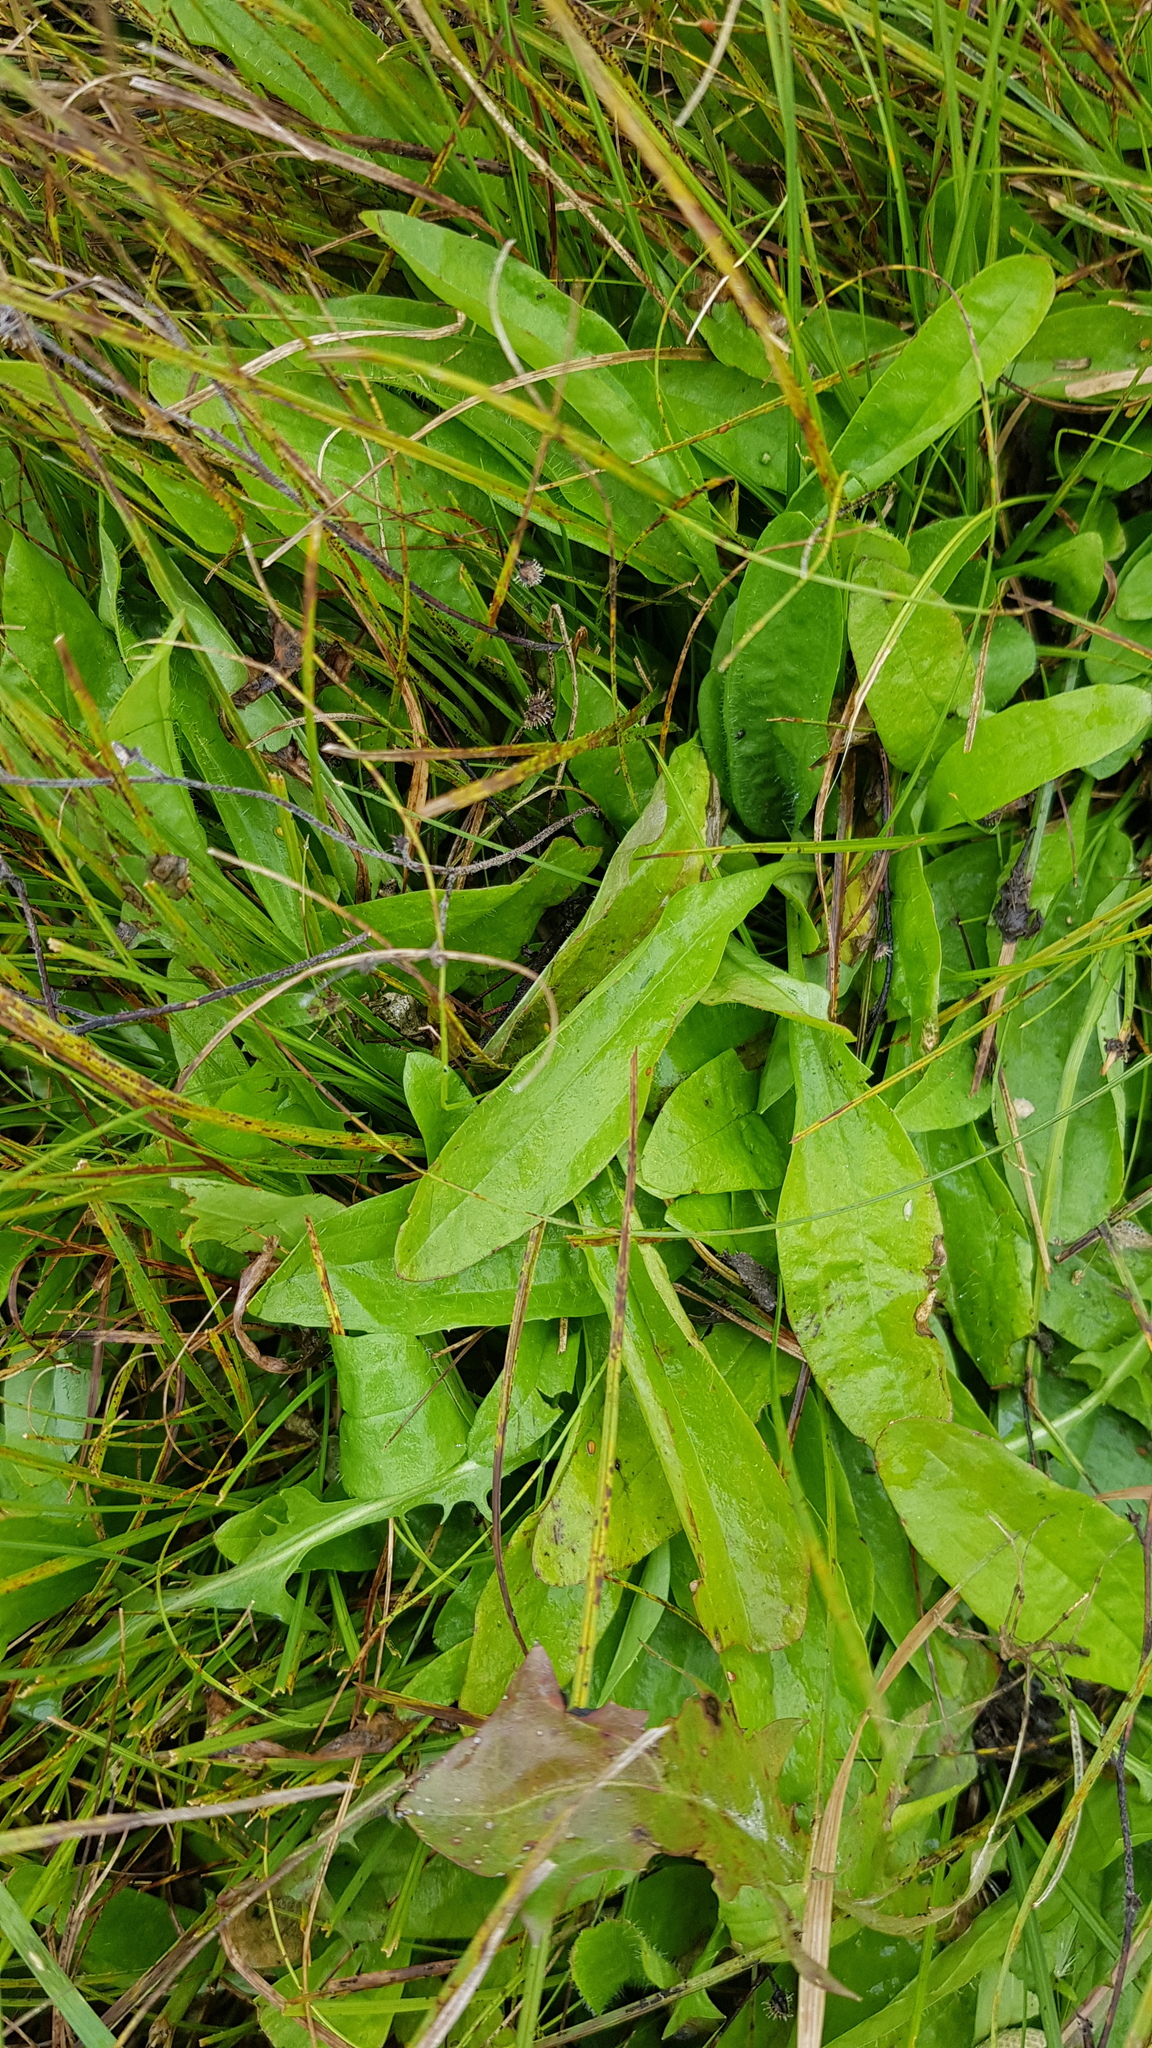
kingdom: Plantae
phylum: Tracheophyta
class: Magnoliopsida
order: Lamiales
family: Plantaginaceae
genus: Plantago
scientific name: Plantago depressa
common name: Depressed plantain
